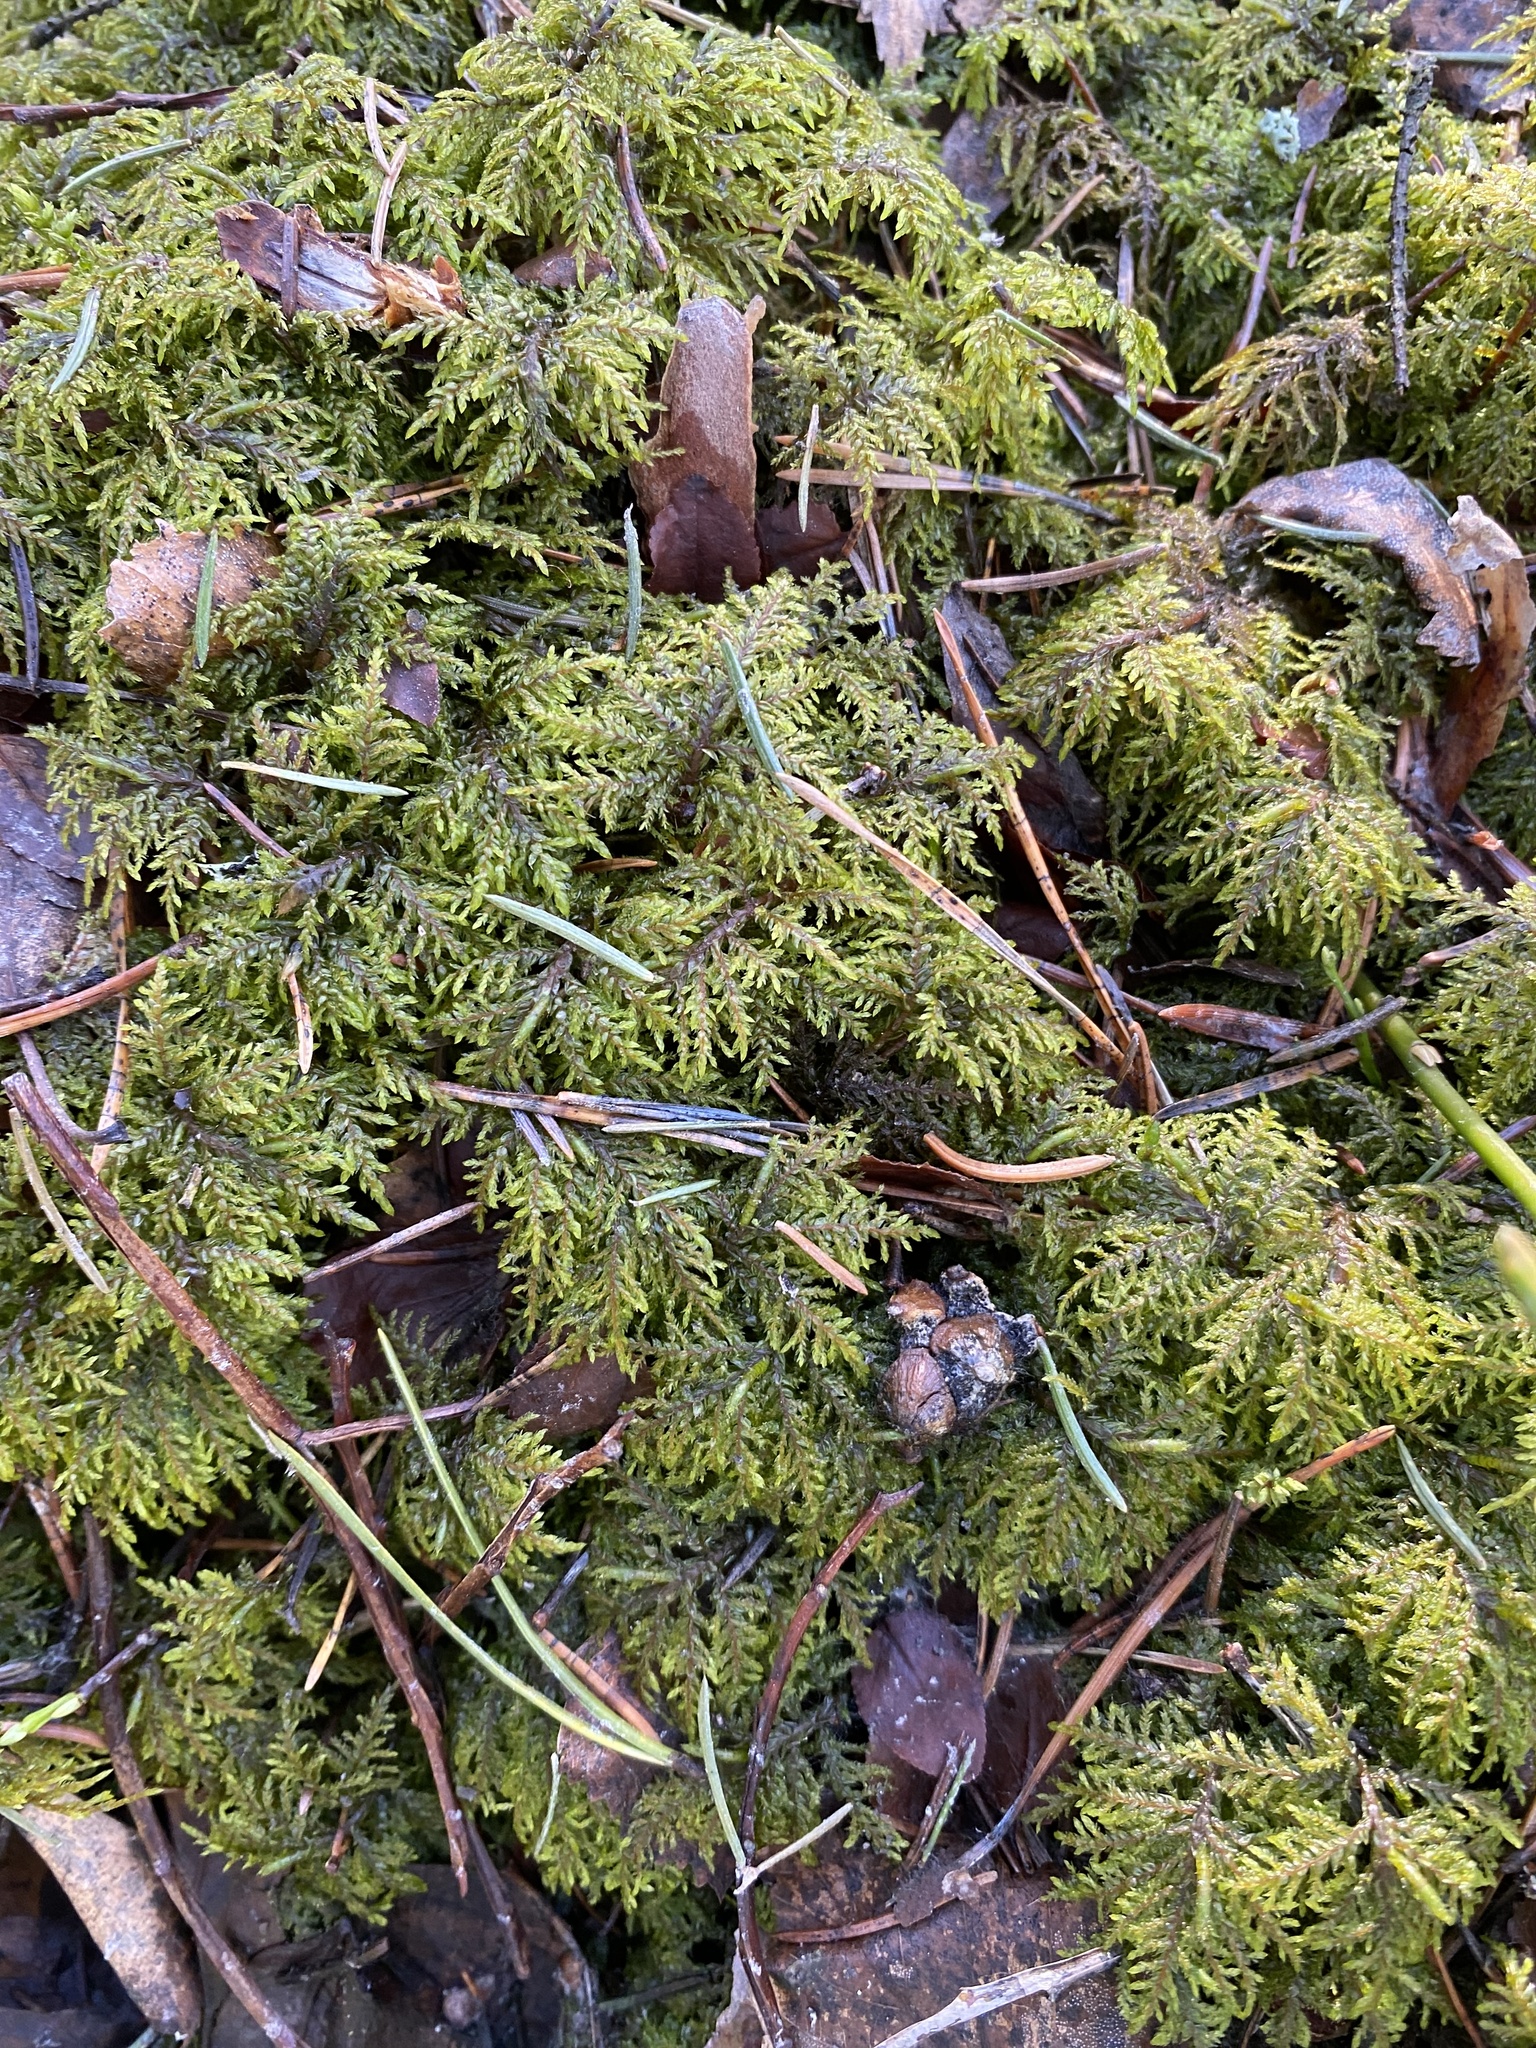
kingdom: Plantae
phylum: Bryophyta
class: Bryopsida
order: Hypnales
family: Hylocomiaceae
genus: Hylocomium
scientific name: Hylocomium splendens
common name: Stairstep moss
